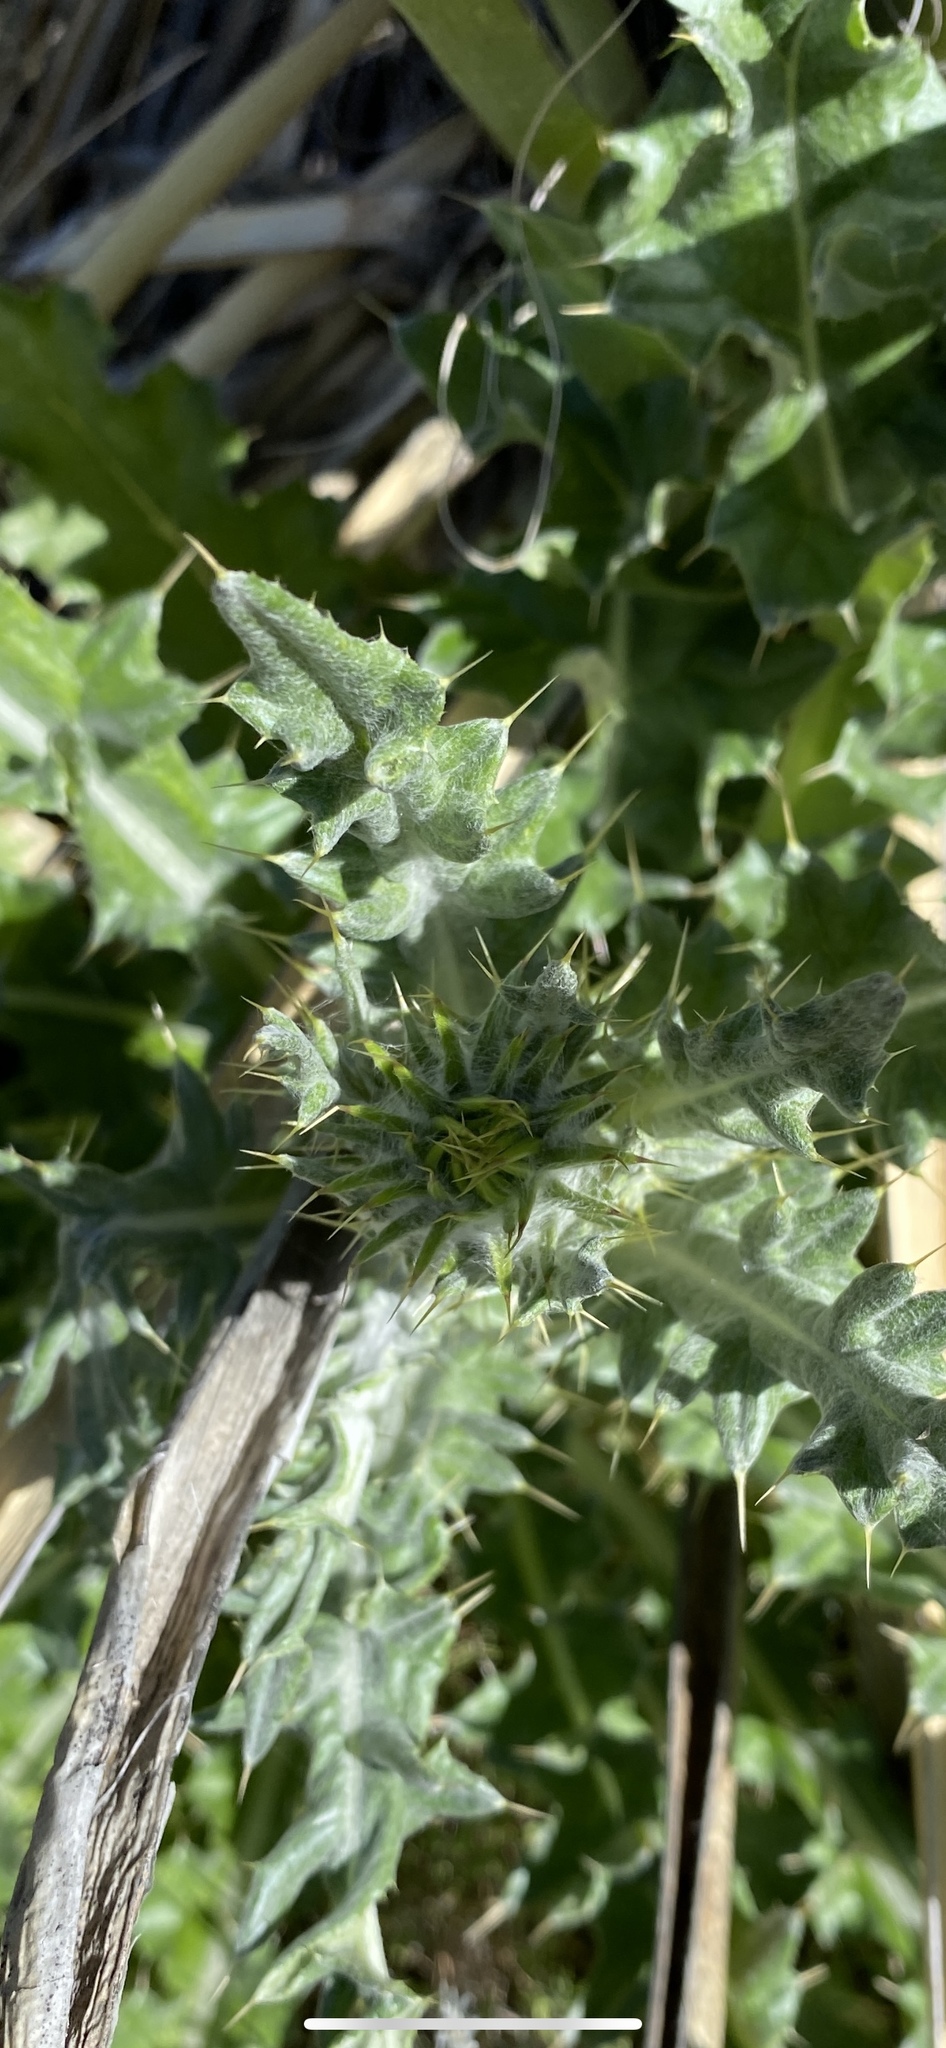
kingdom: Plantae
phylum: Tracheophyta
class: Magnoliopsida
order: Asterales
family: Asteraceae
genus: Cirsium
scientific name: Cirsium neomexicanum
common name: New mexico thistle
